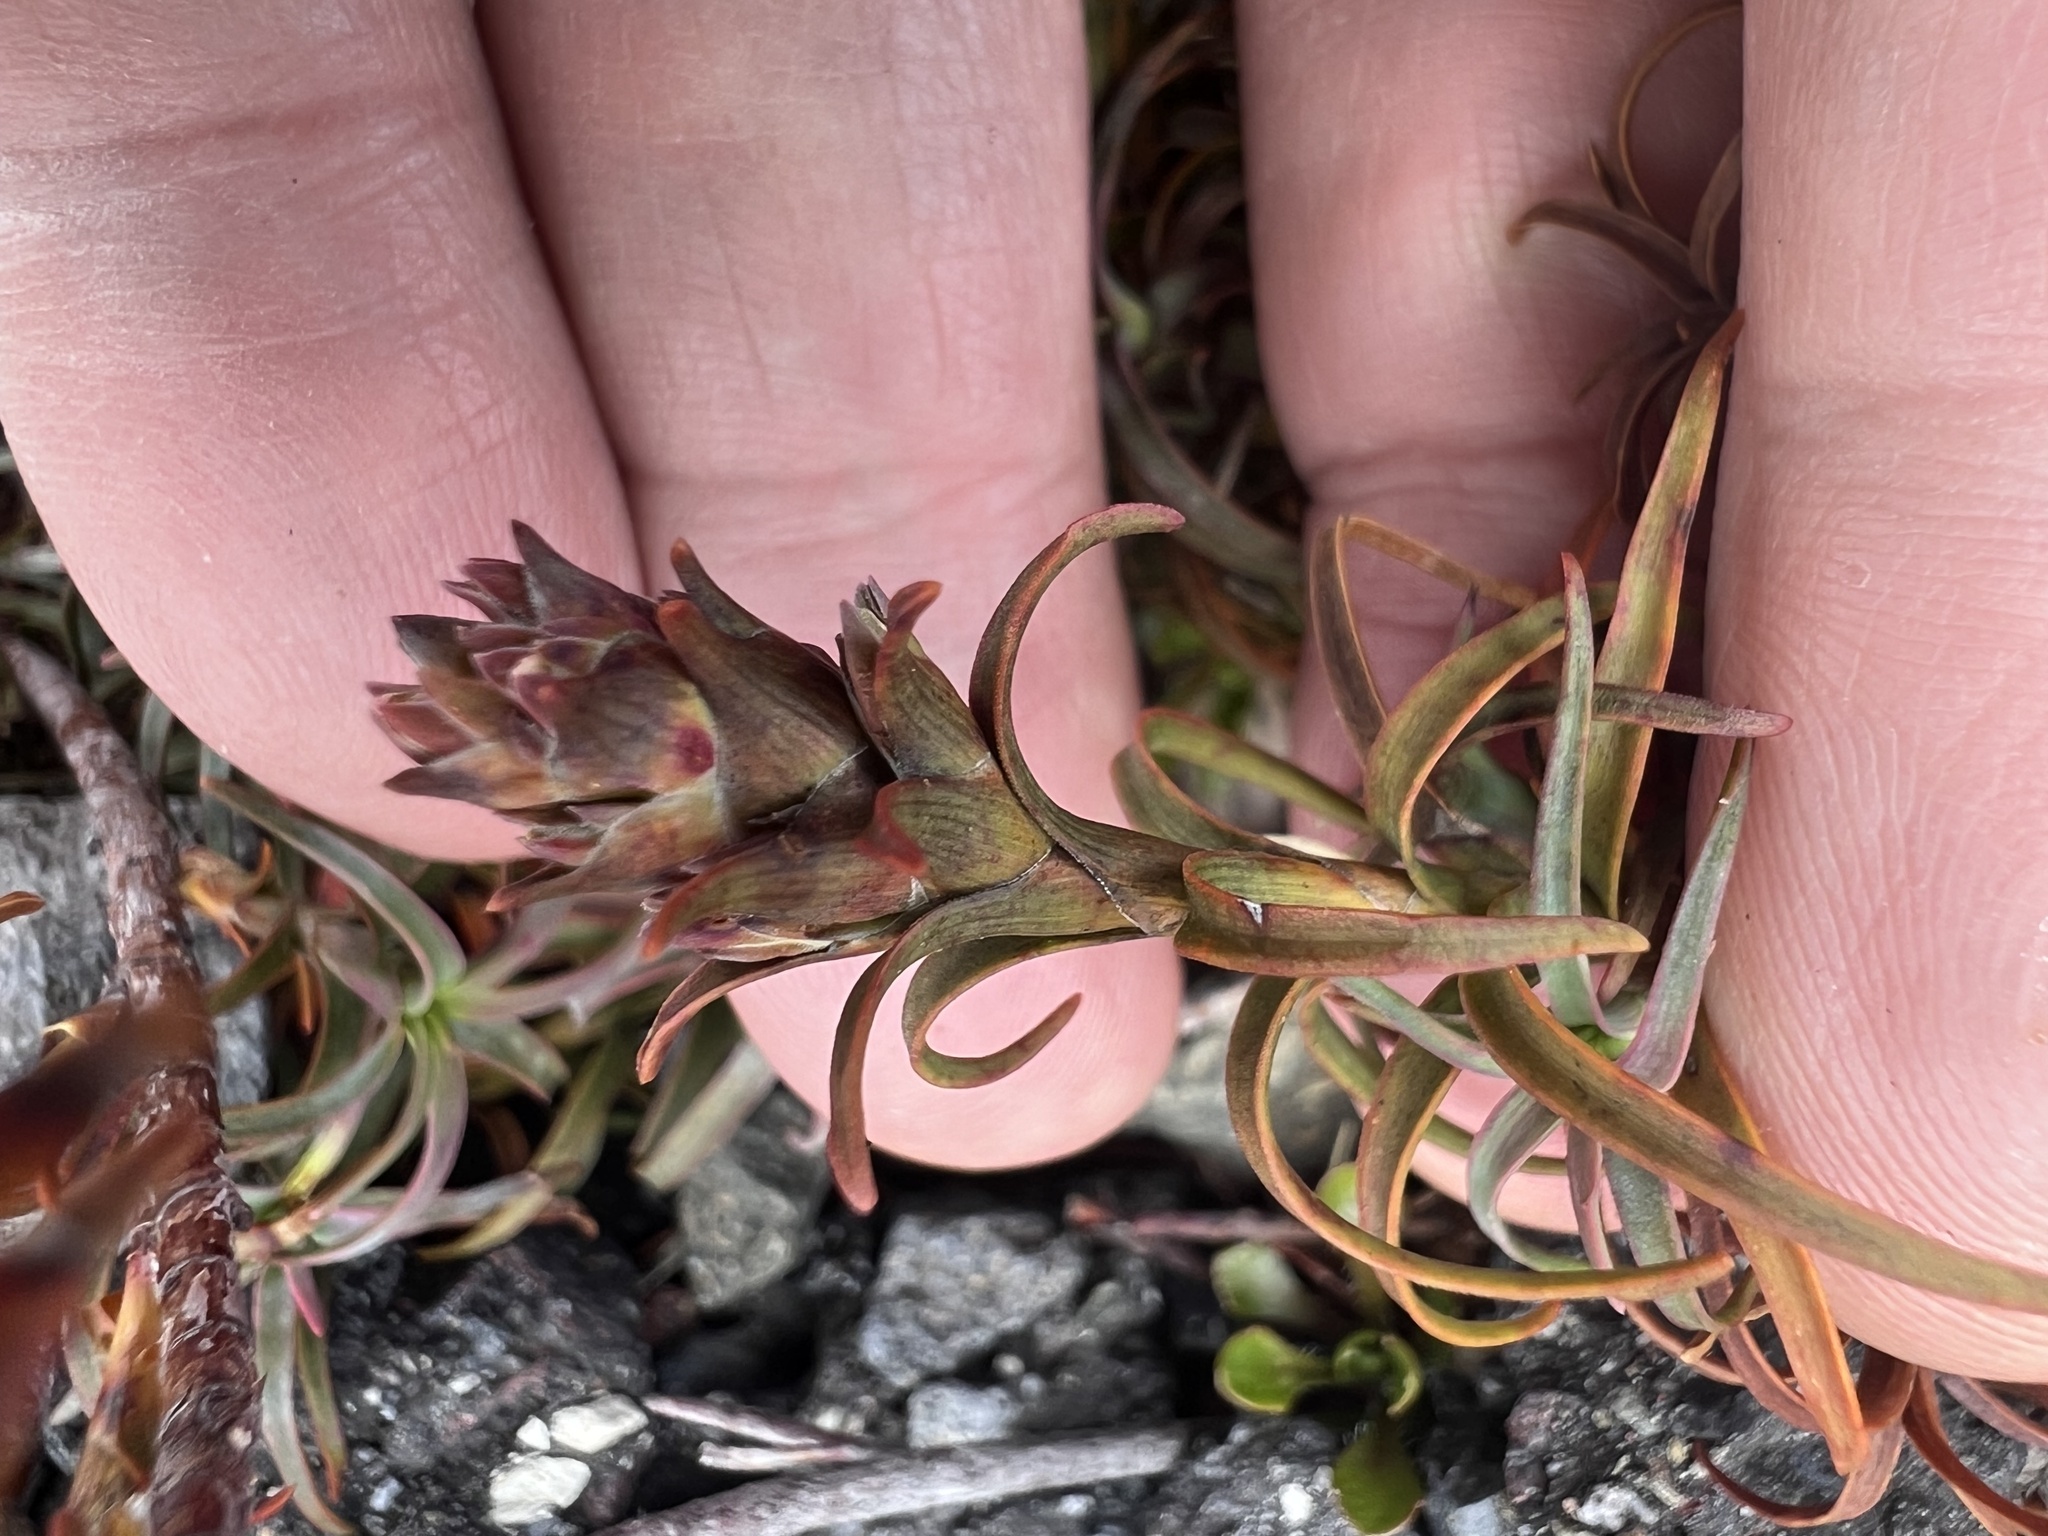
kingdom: Plantae
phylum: Tracheophyta
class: Magnoliopsida
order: Ericales
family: Ericaceae
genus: Dracophyllum
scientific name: Dracophyllum recurvum
